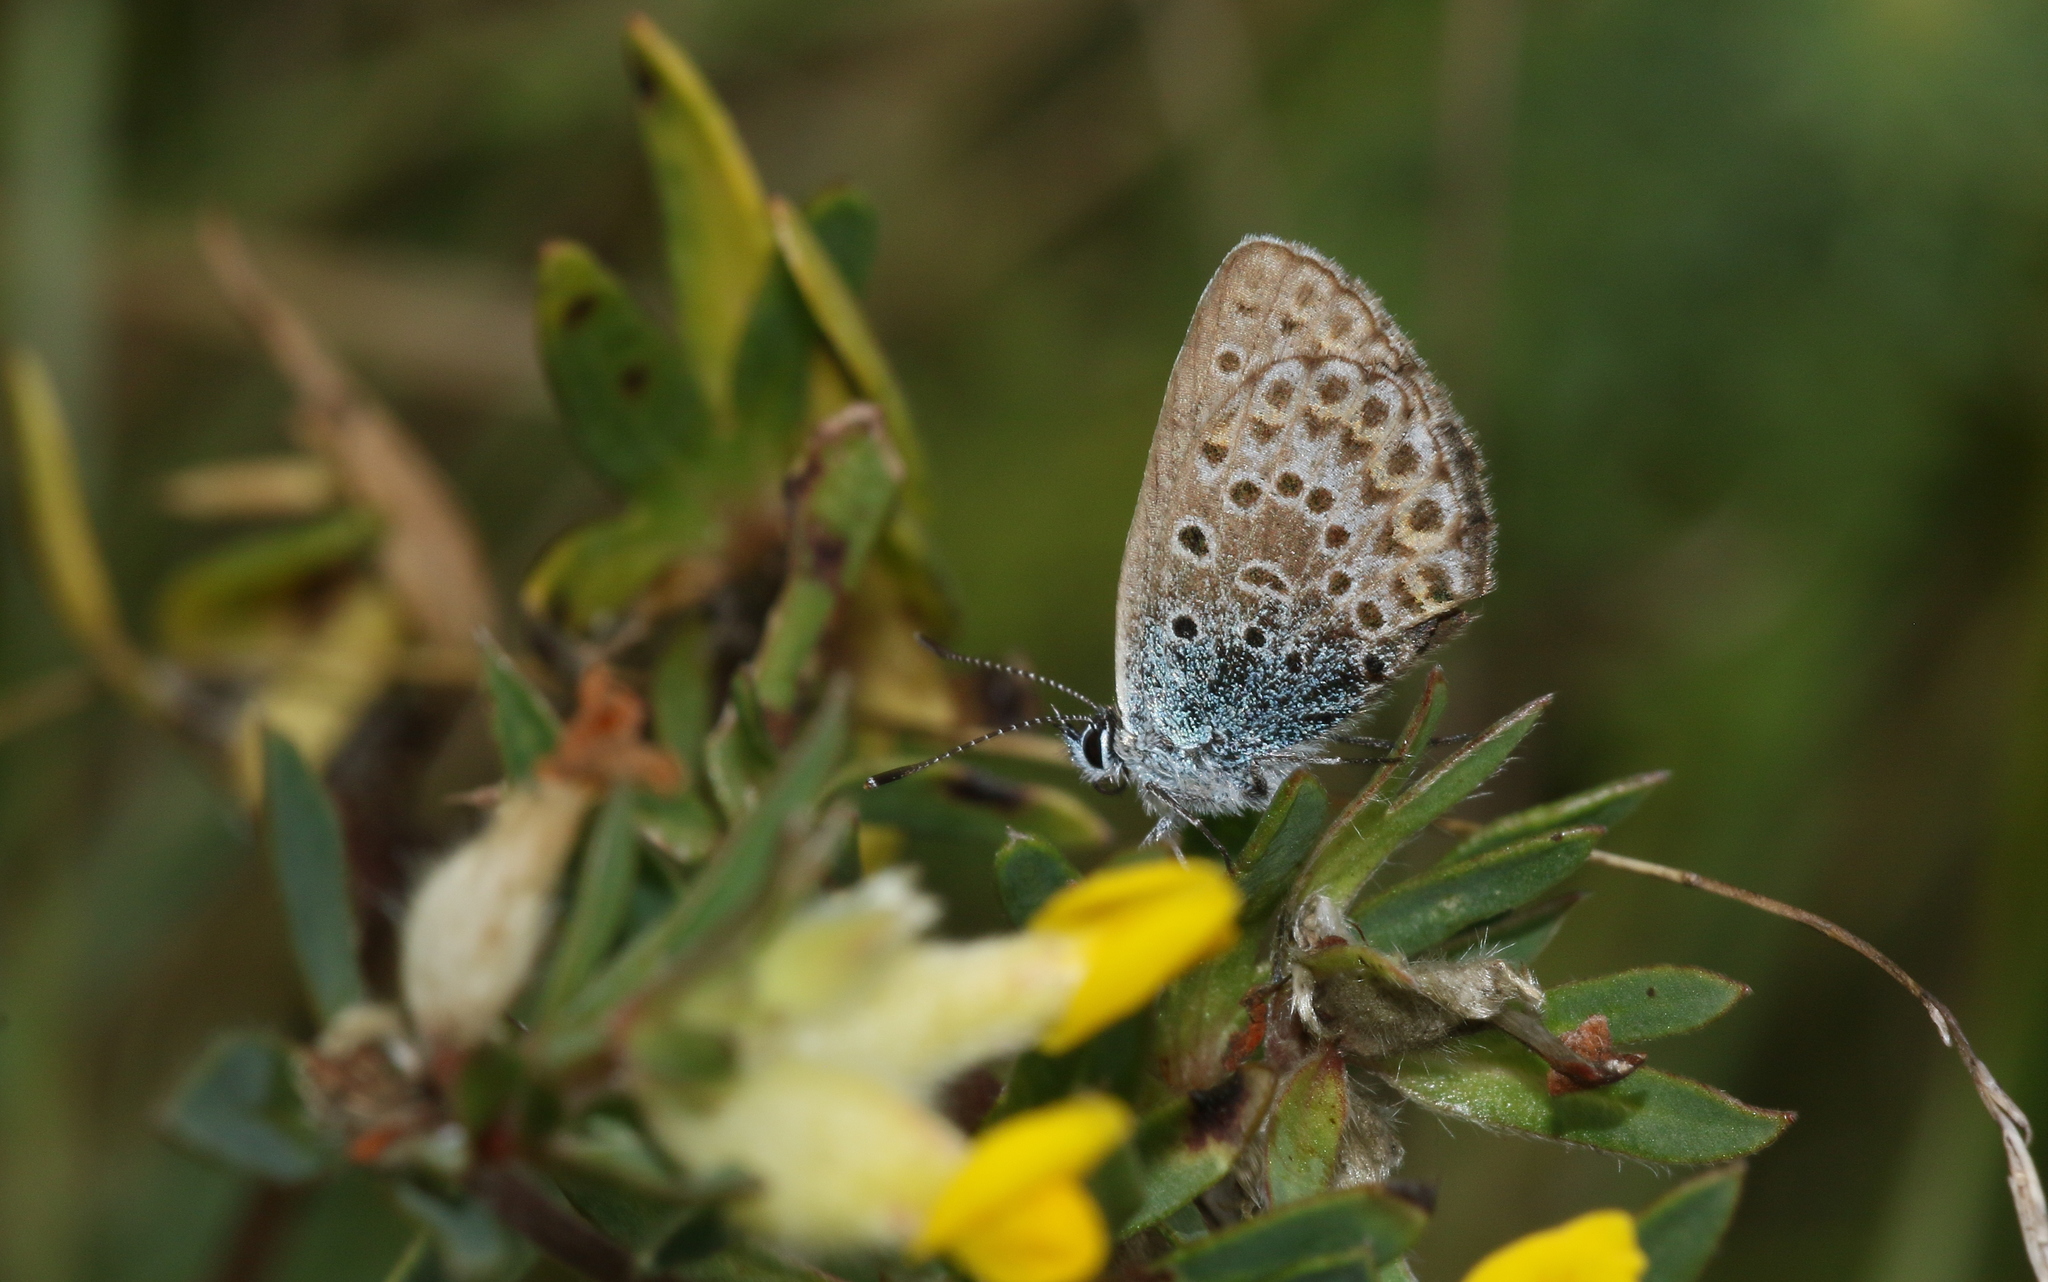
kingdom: Animalia
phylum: Arthropoda
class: Insecta
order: Lepidoptera
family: Lycaenidae
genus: Lycaeides
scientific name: Lycaeides idas
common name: Northern blue
